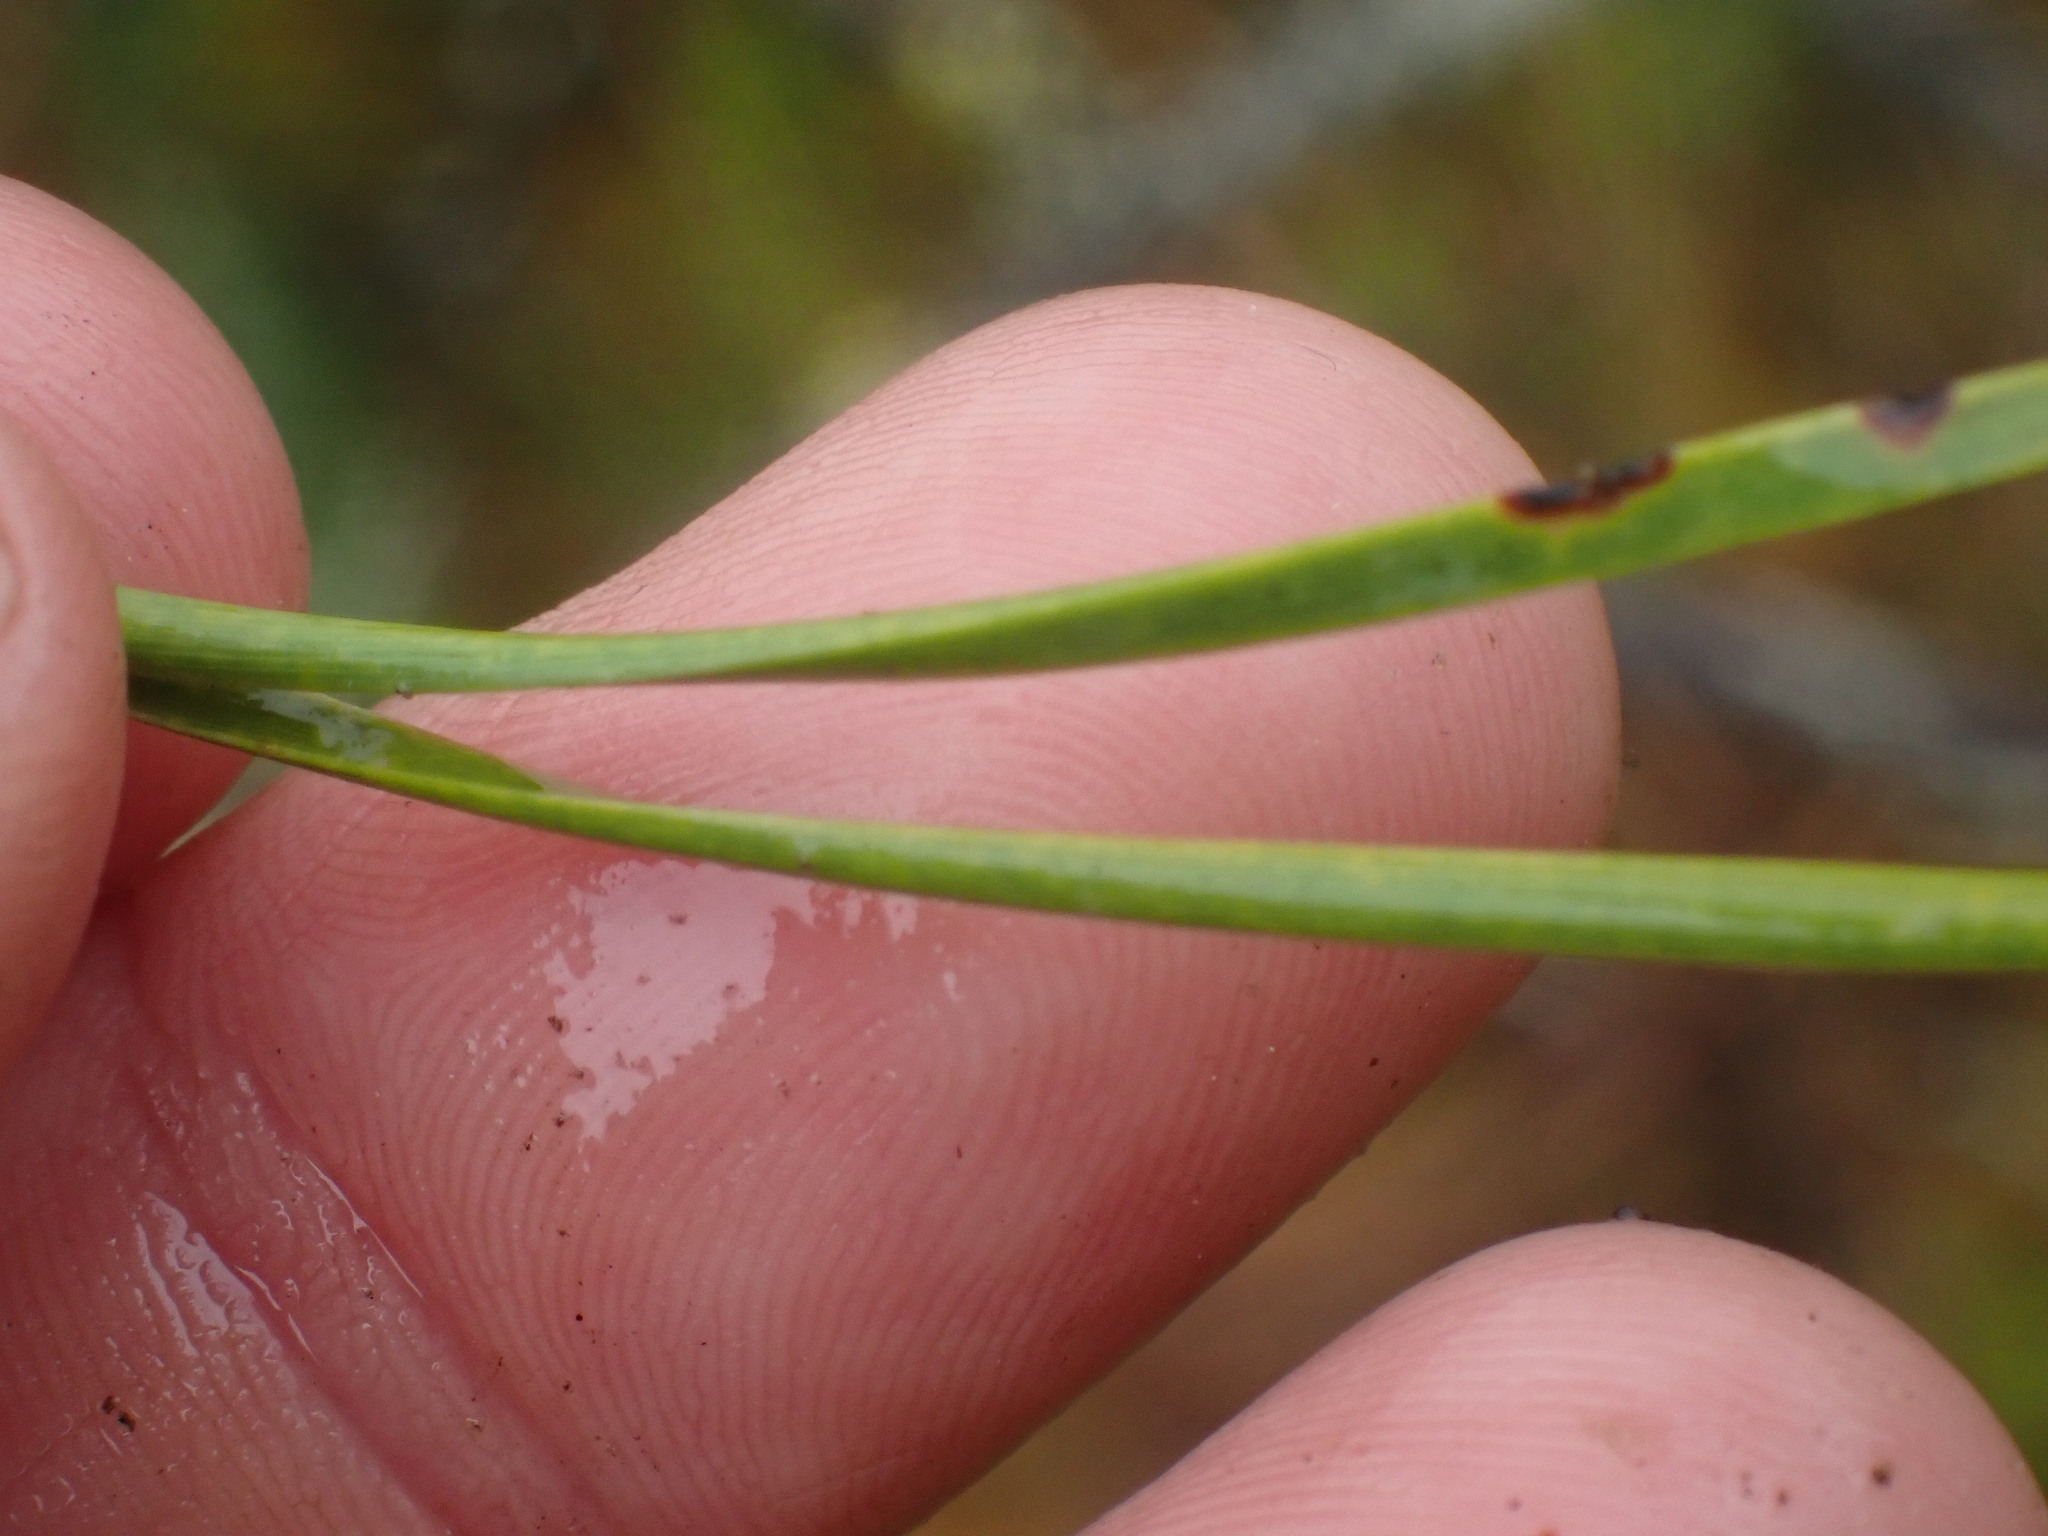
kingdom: Plantae
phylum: Tracheophyta
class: Pinopsida
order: Pinales
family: Pinaceae
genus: Pinus
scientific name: Pinus contorta
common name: Lodgepole pine
